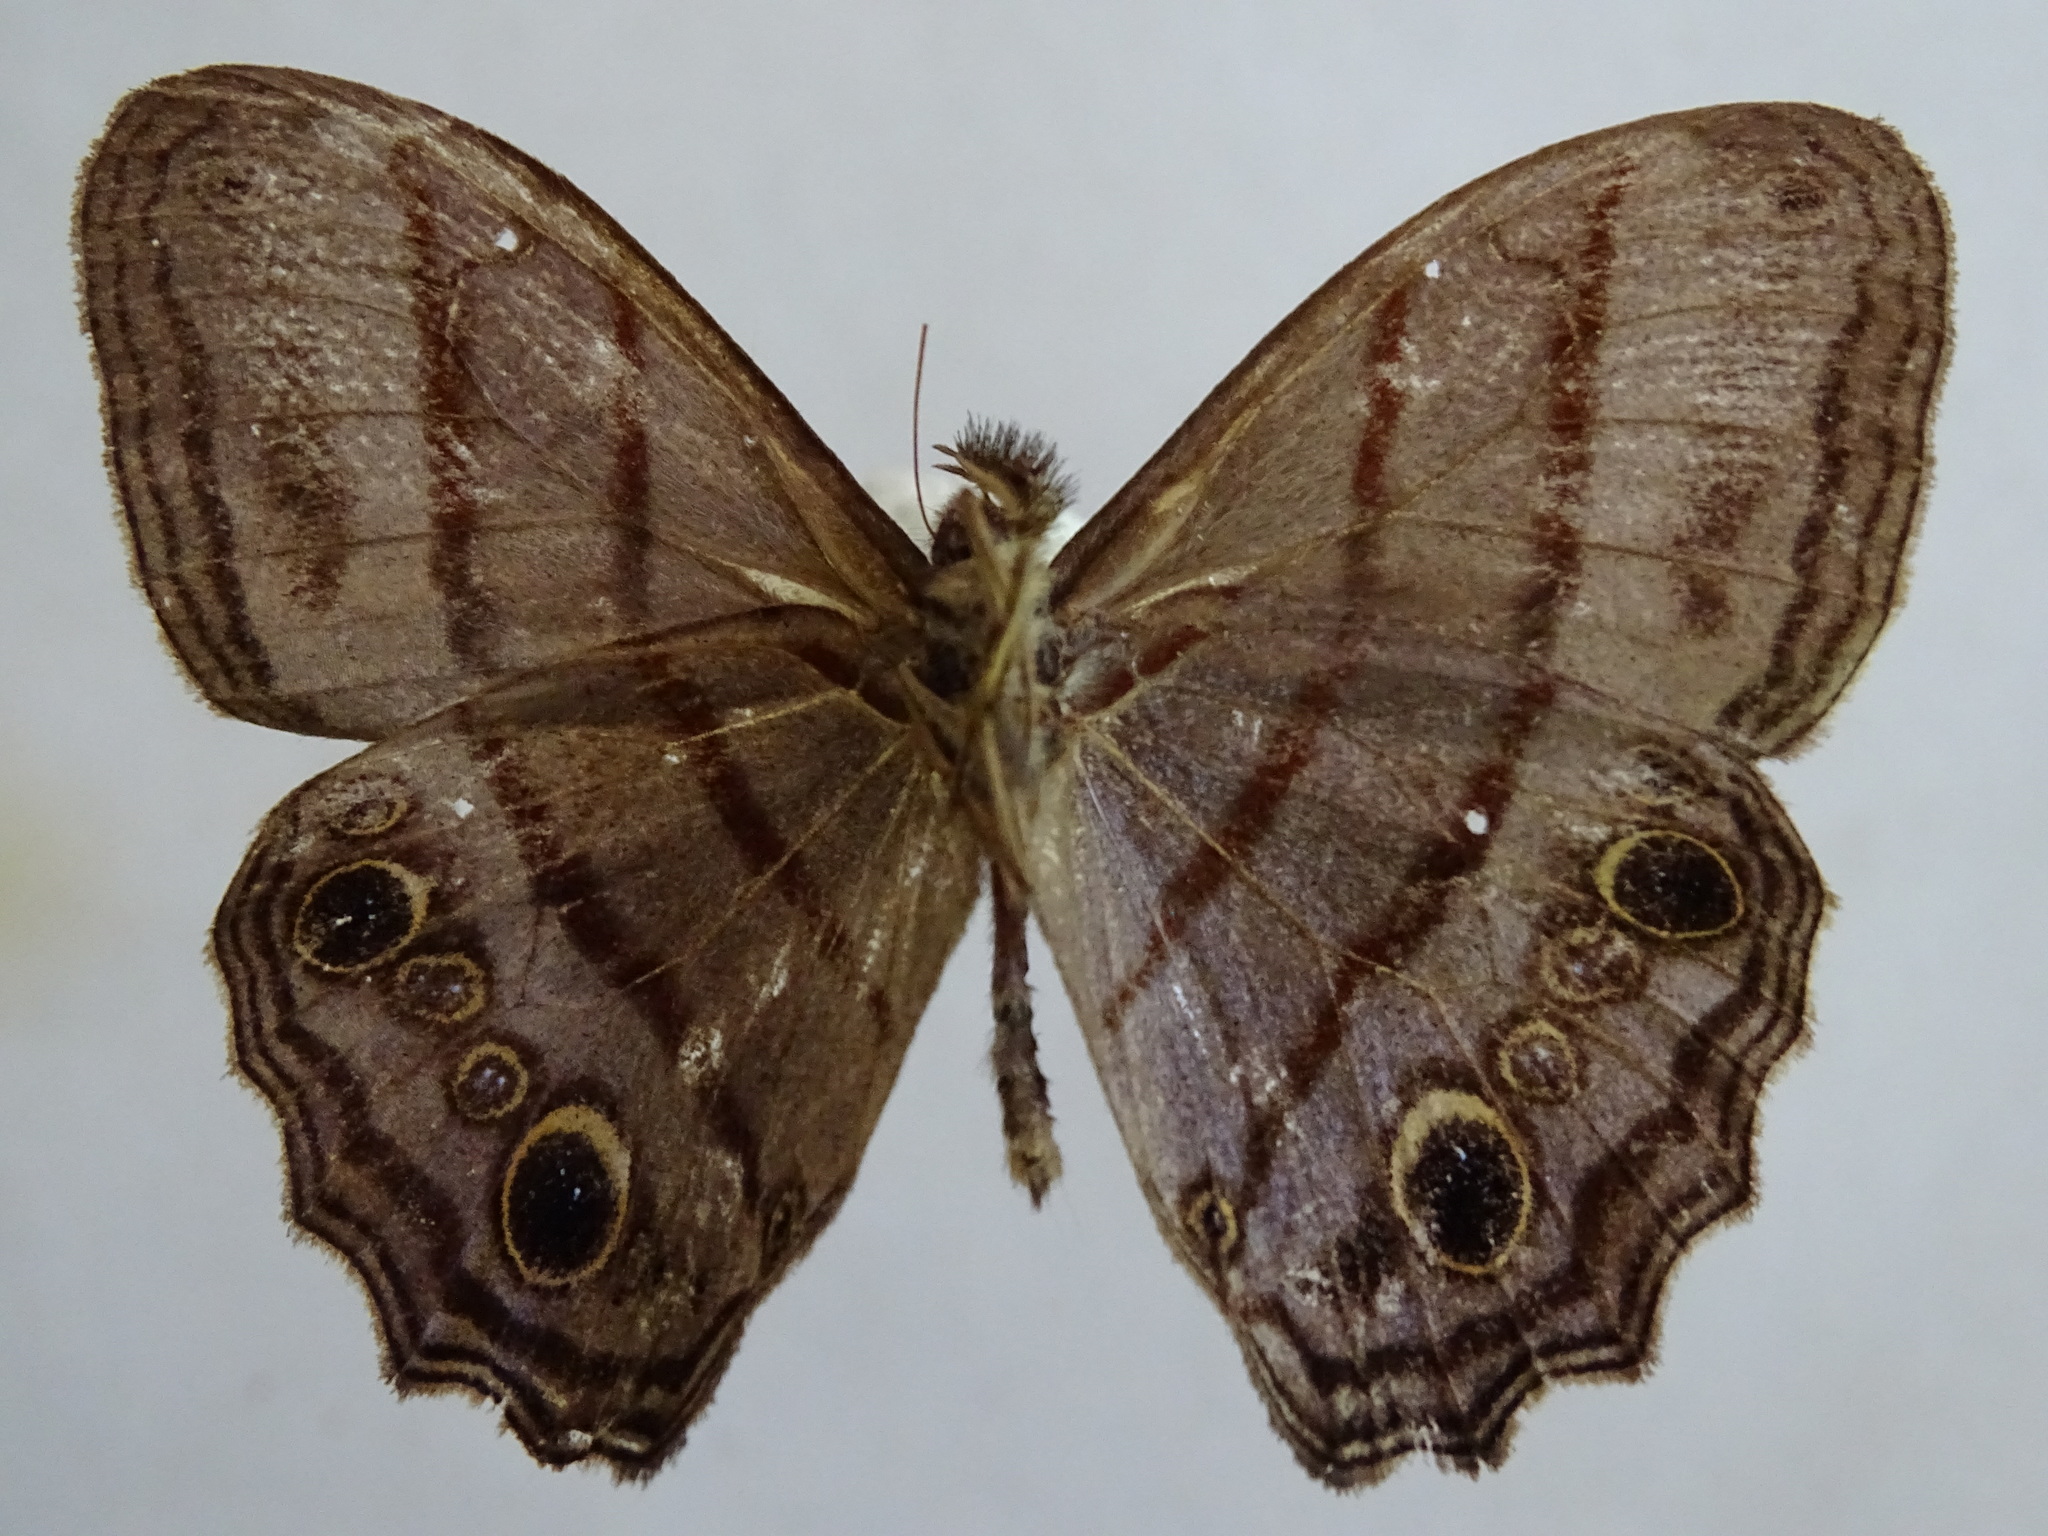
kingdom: Animalia
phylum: Arthropoda
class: Insecta
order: Lepidoptera
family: Nymphalidae
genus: Magneuptychia
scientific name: Magneuptychia libye
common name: Blue-gray satyr
